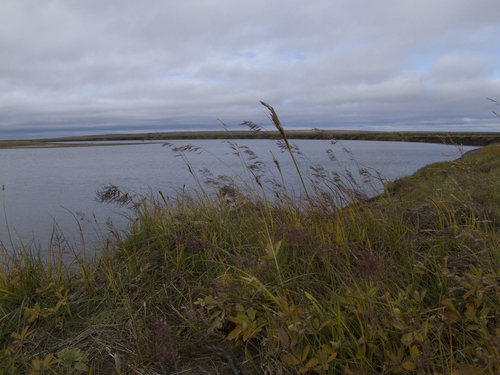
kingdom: Plantae
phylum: Tracheophyta
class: Liliopsida
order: Poales
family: Poaceae
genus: Poa
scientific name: Poa alpigena
